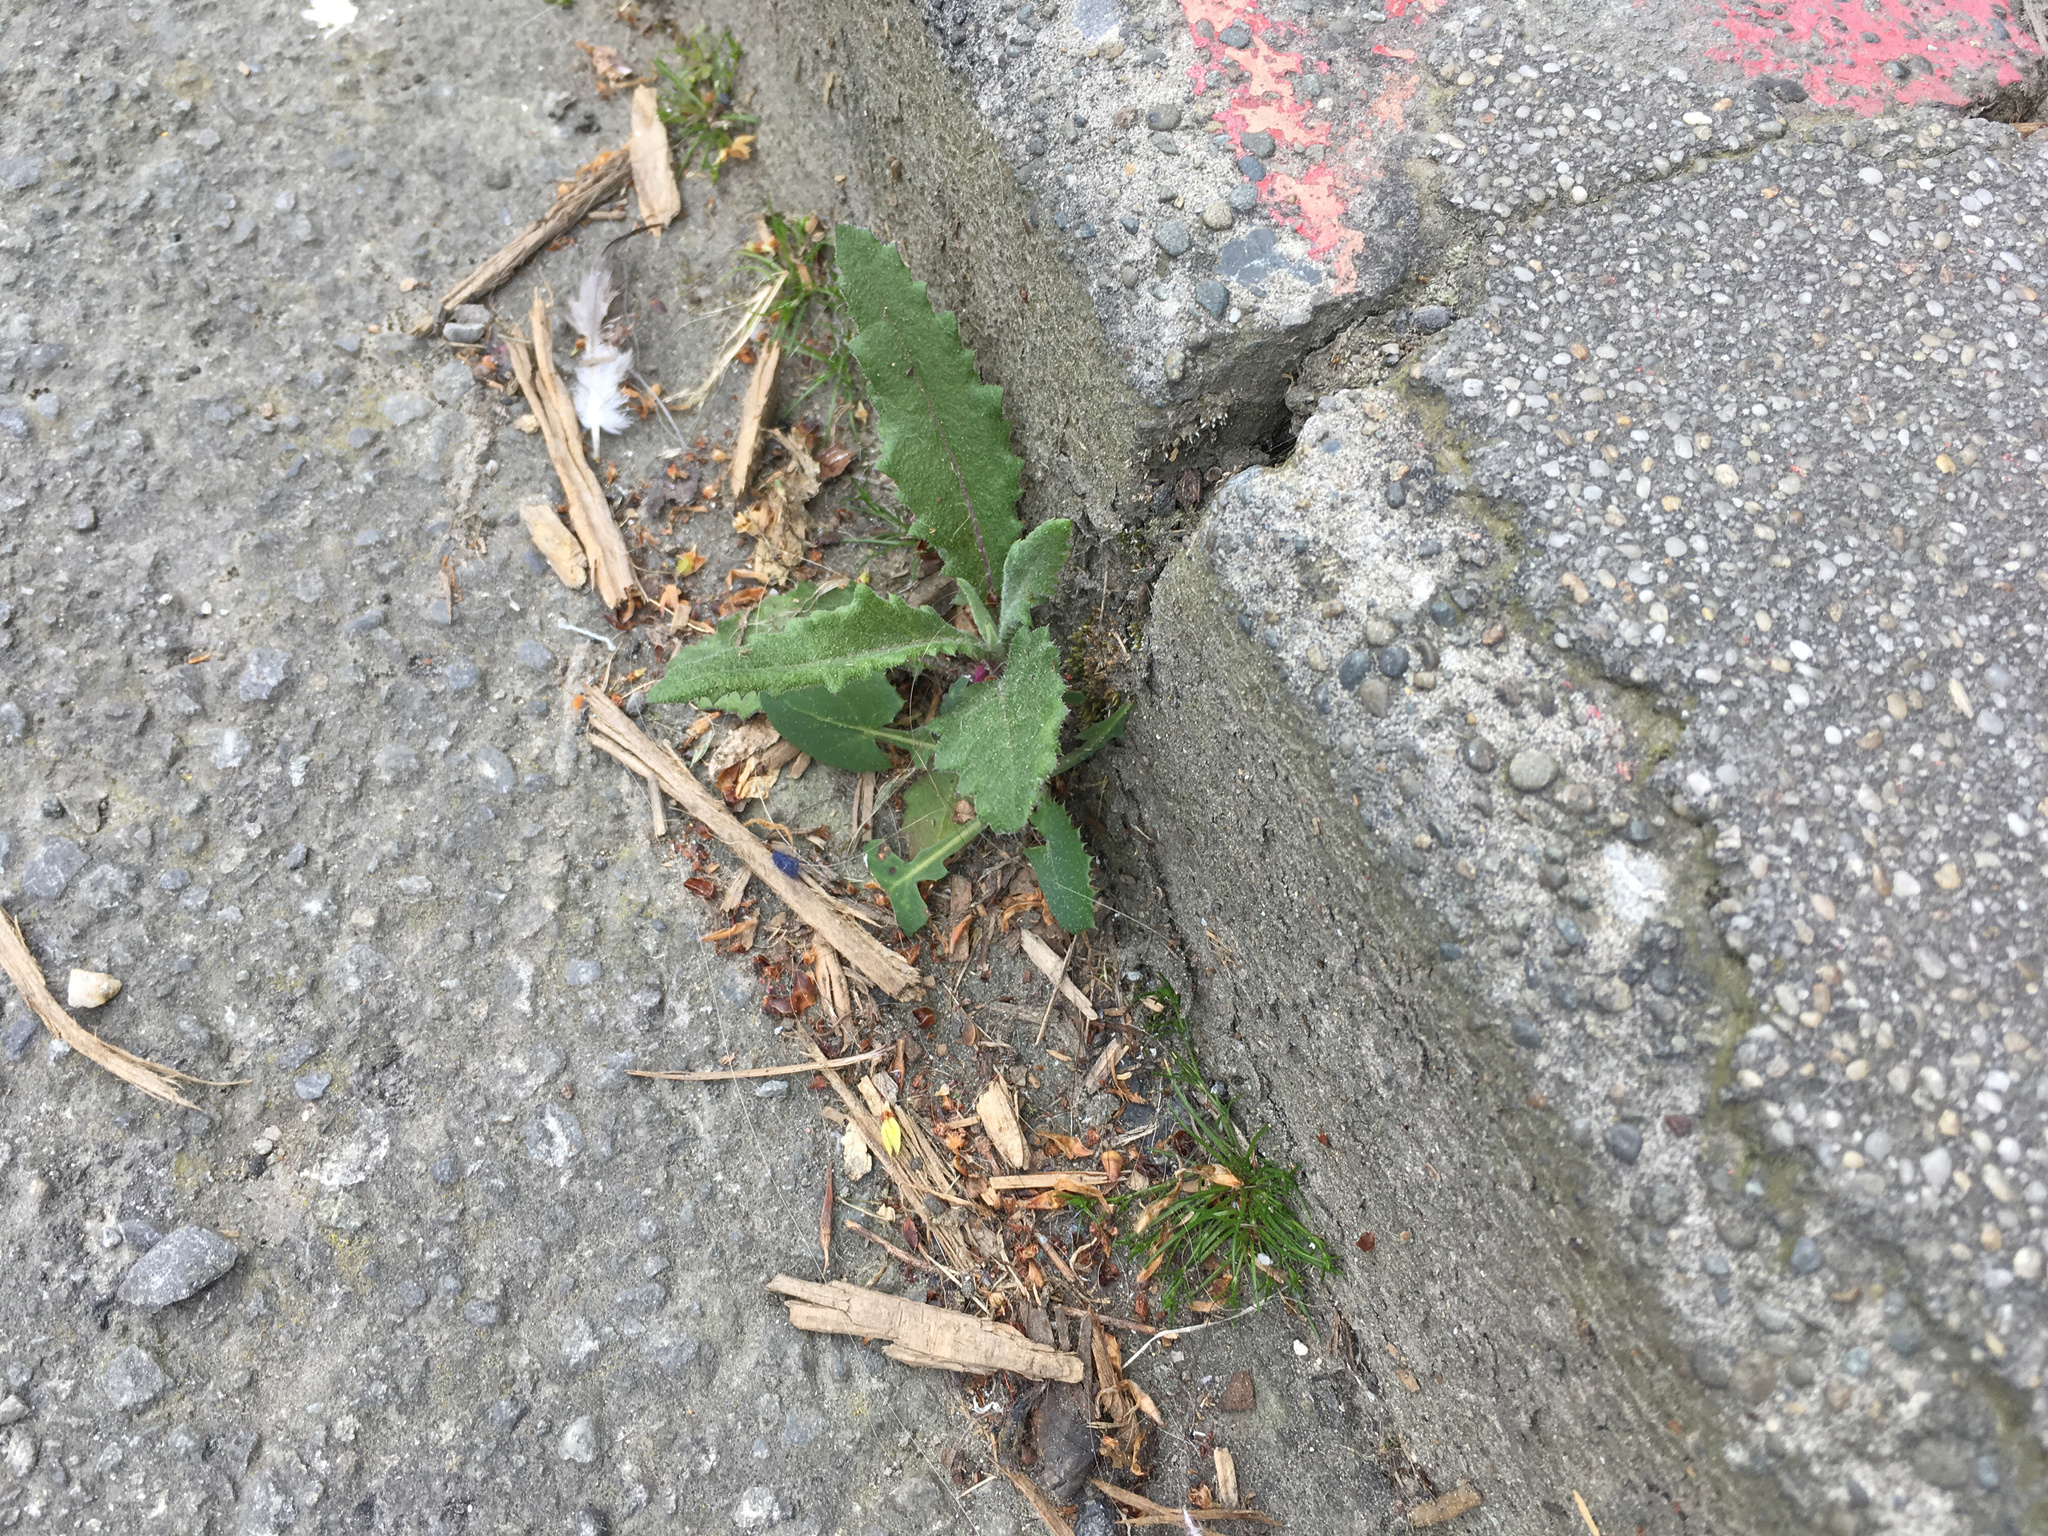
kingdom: Plantae
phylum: Tracheophyta
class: Magnoliopsida
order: Asterales
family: Asteraceae
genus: Senecio
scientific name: Senecio minimus
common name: Toothed fireweed
